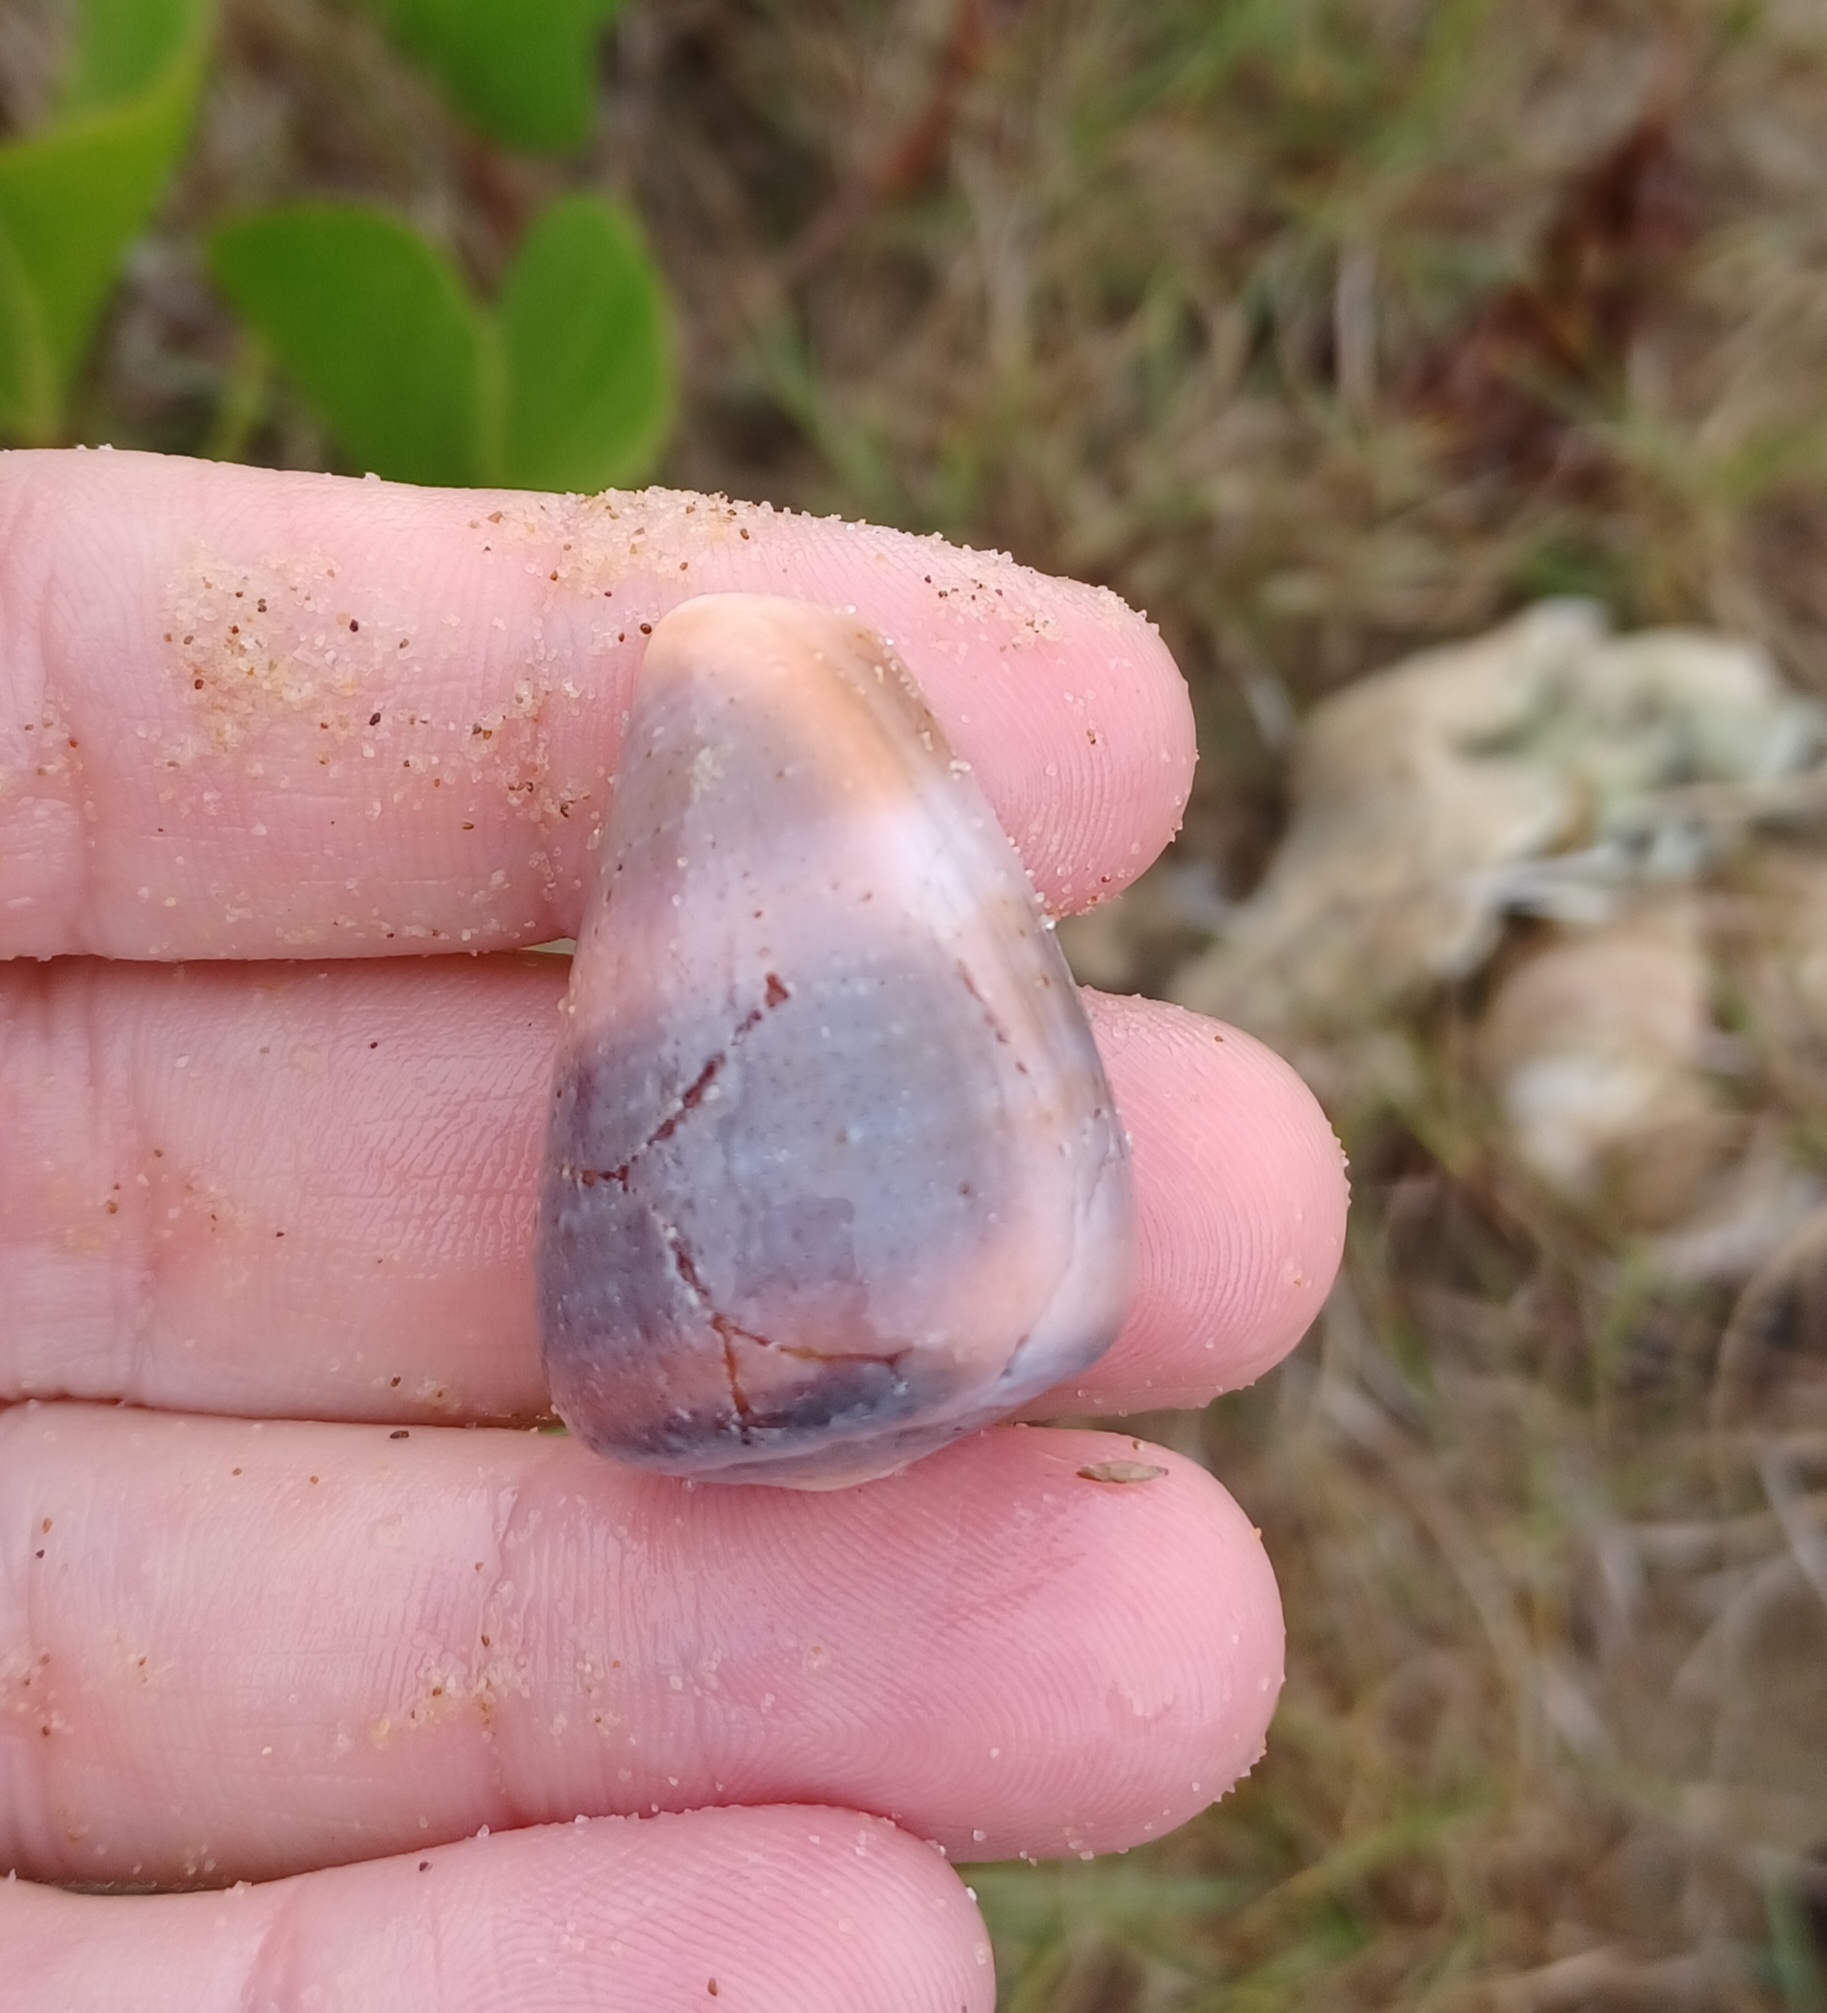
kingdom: Animalia
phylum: Mollusca
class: Gastropoda
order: Neogastropoda
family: Conidae
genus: Conus
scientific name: Conus papilliferus
